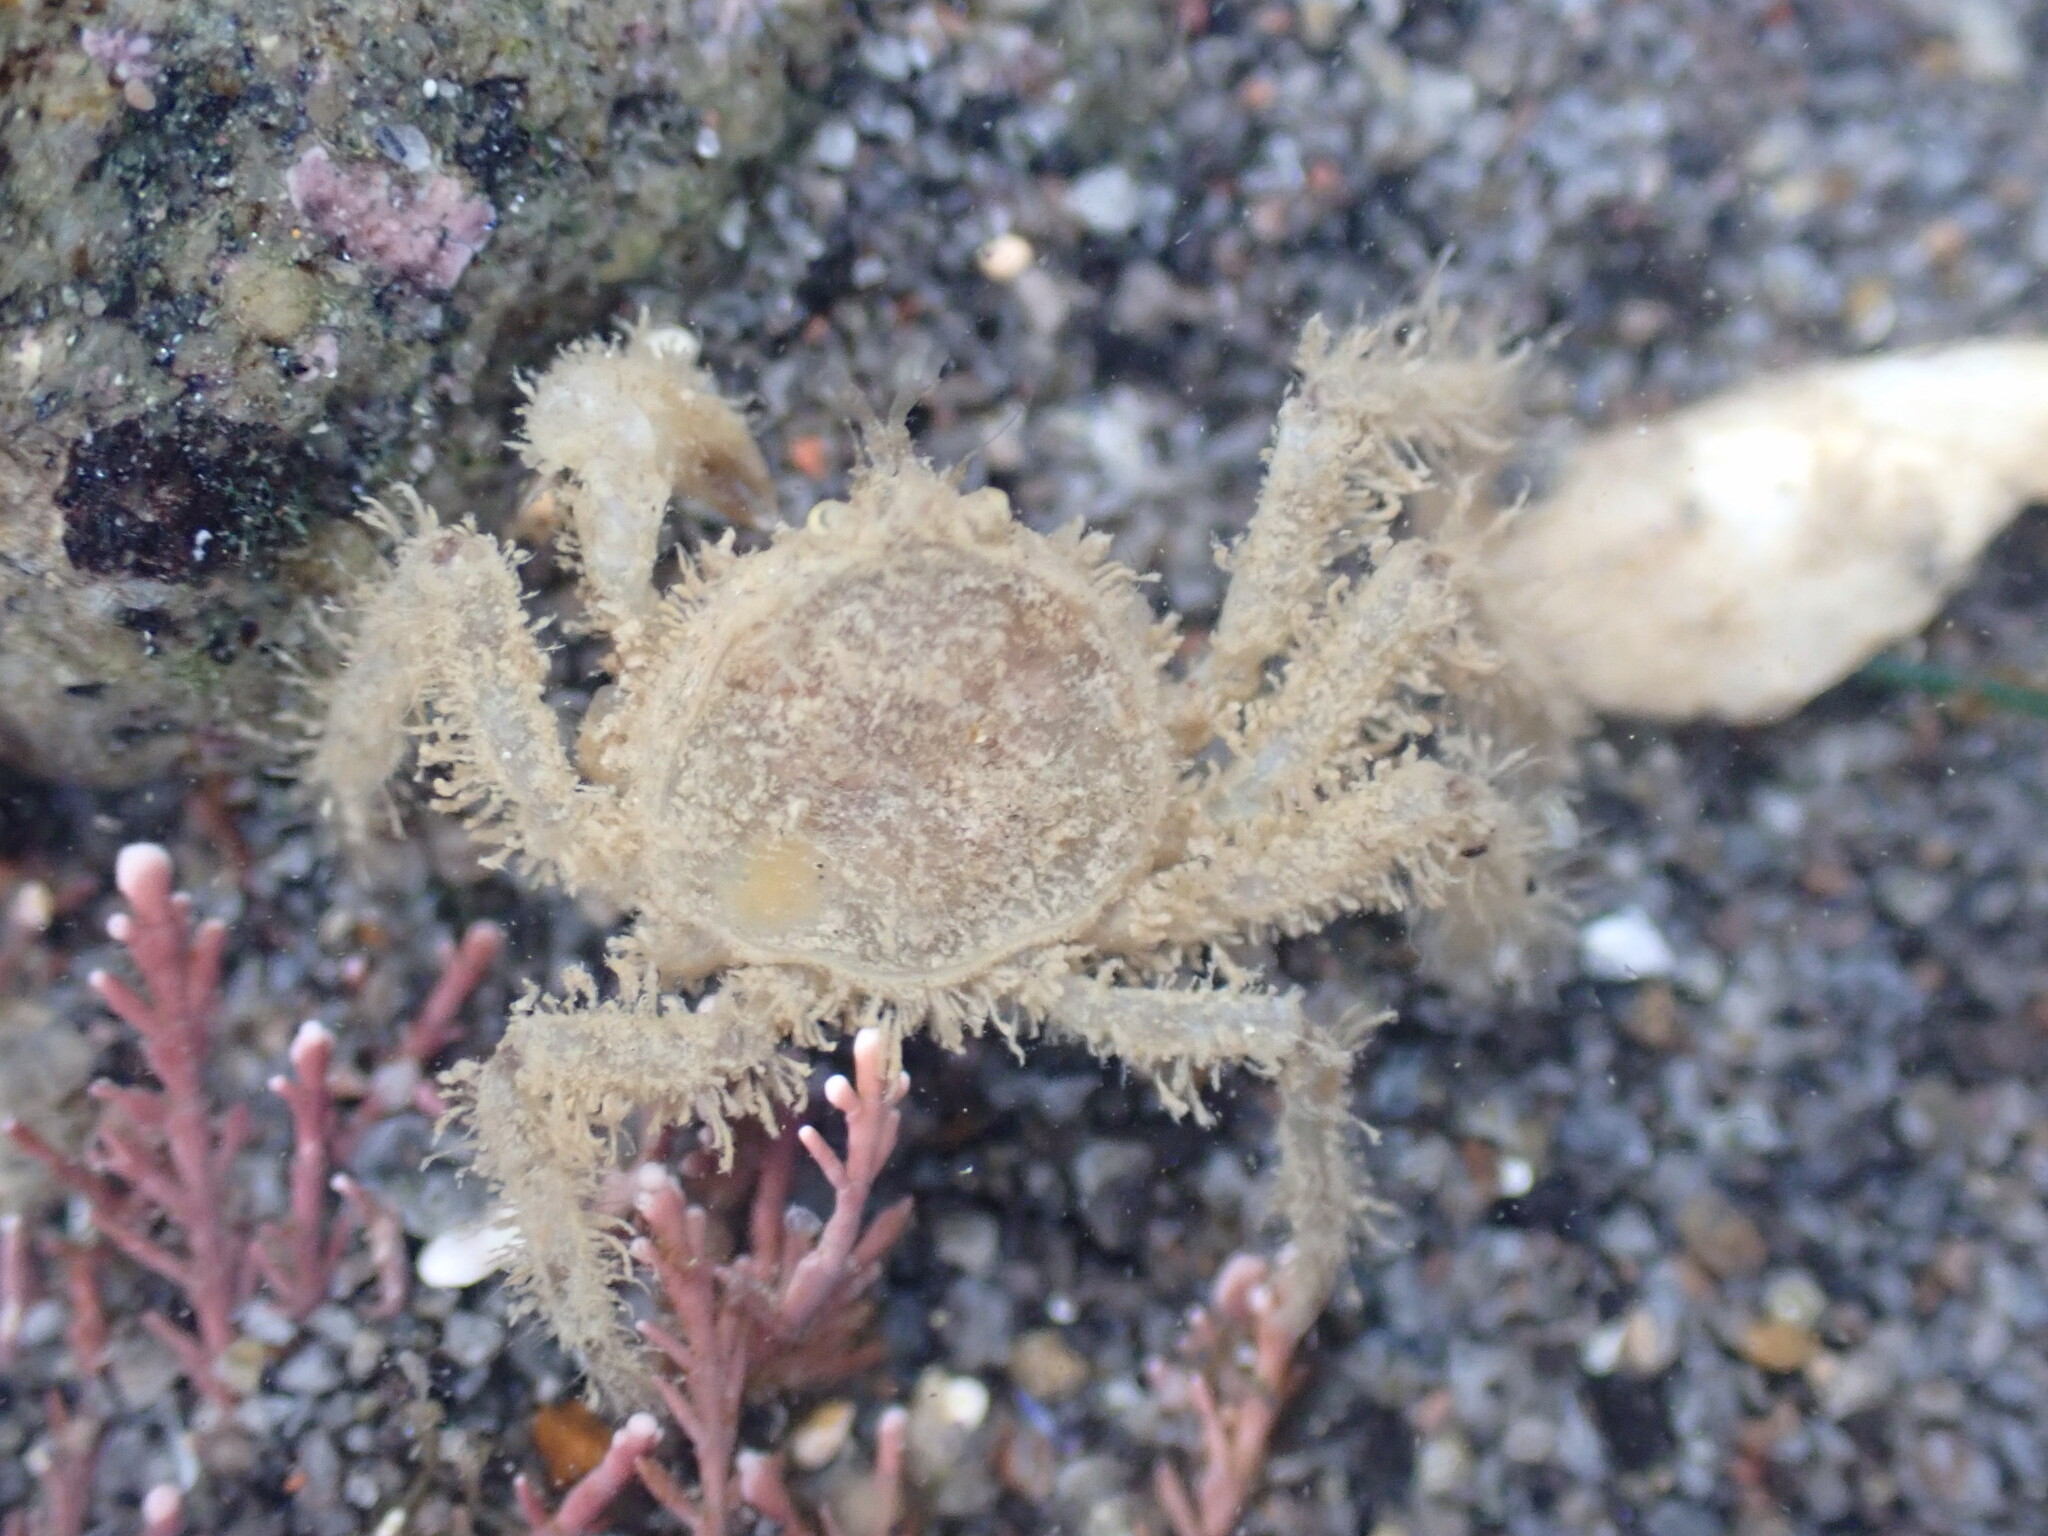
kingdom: Animalia
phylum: Arthropoda
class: Malacostraca
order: Decapoda
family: Hymenosomatidae
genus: Neohymenicus
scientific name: Neohymenicus pubescens
